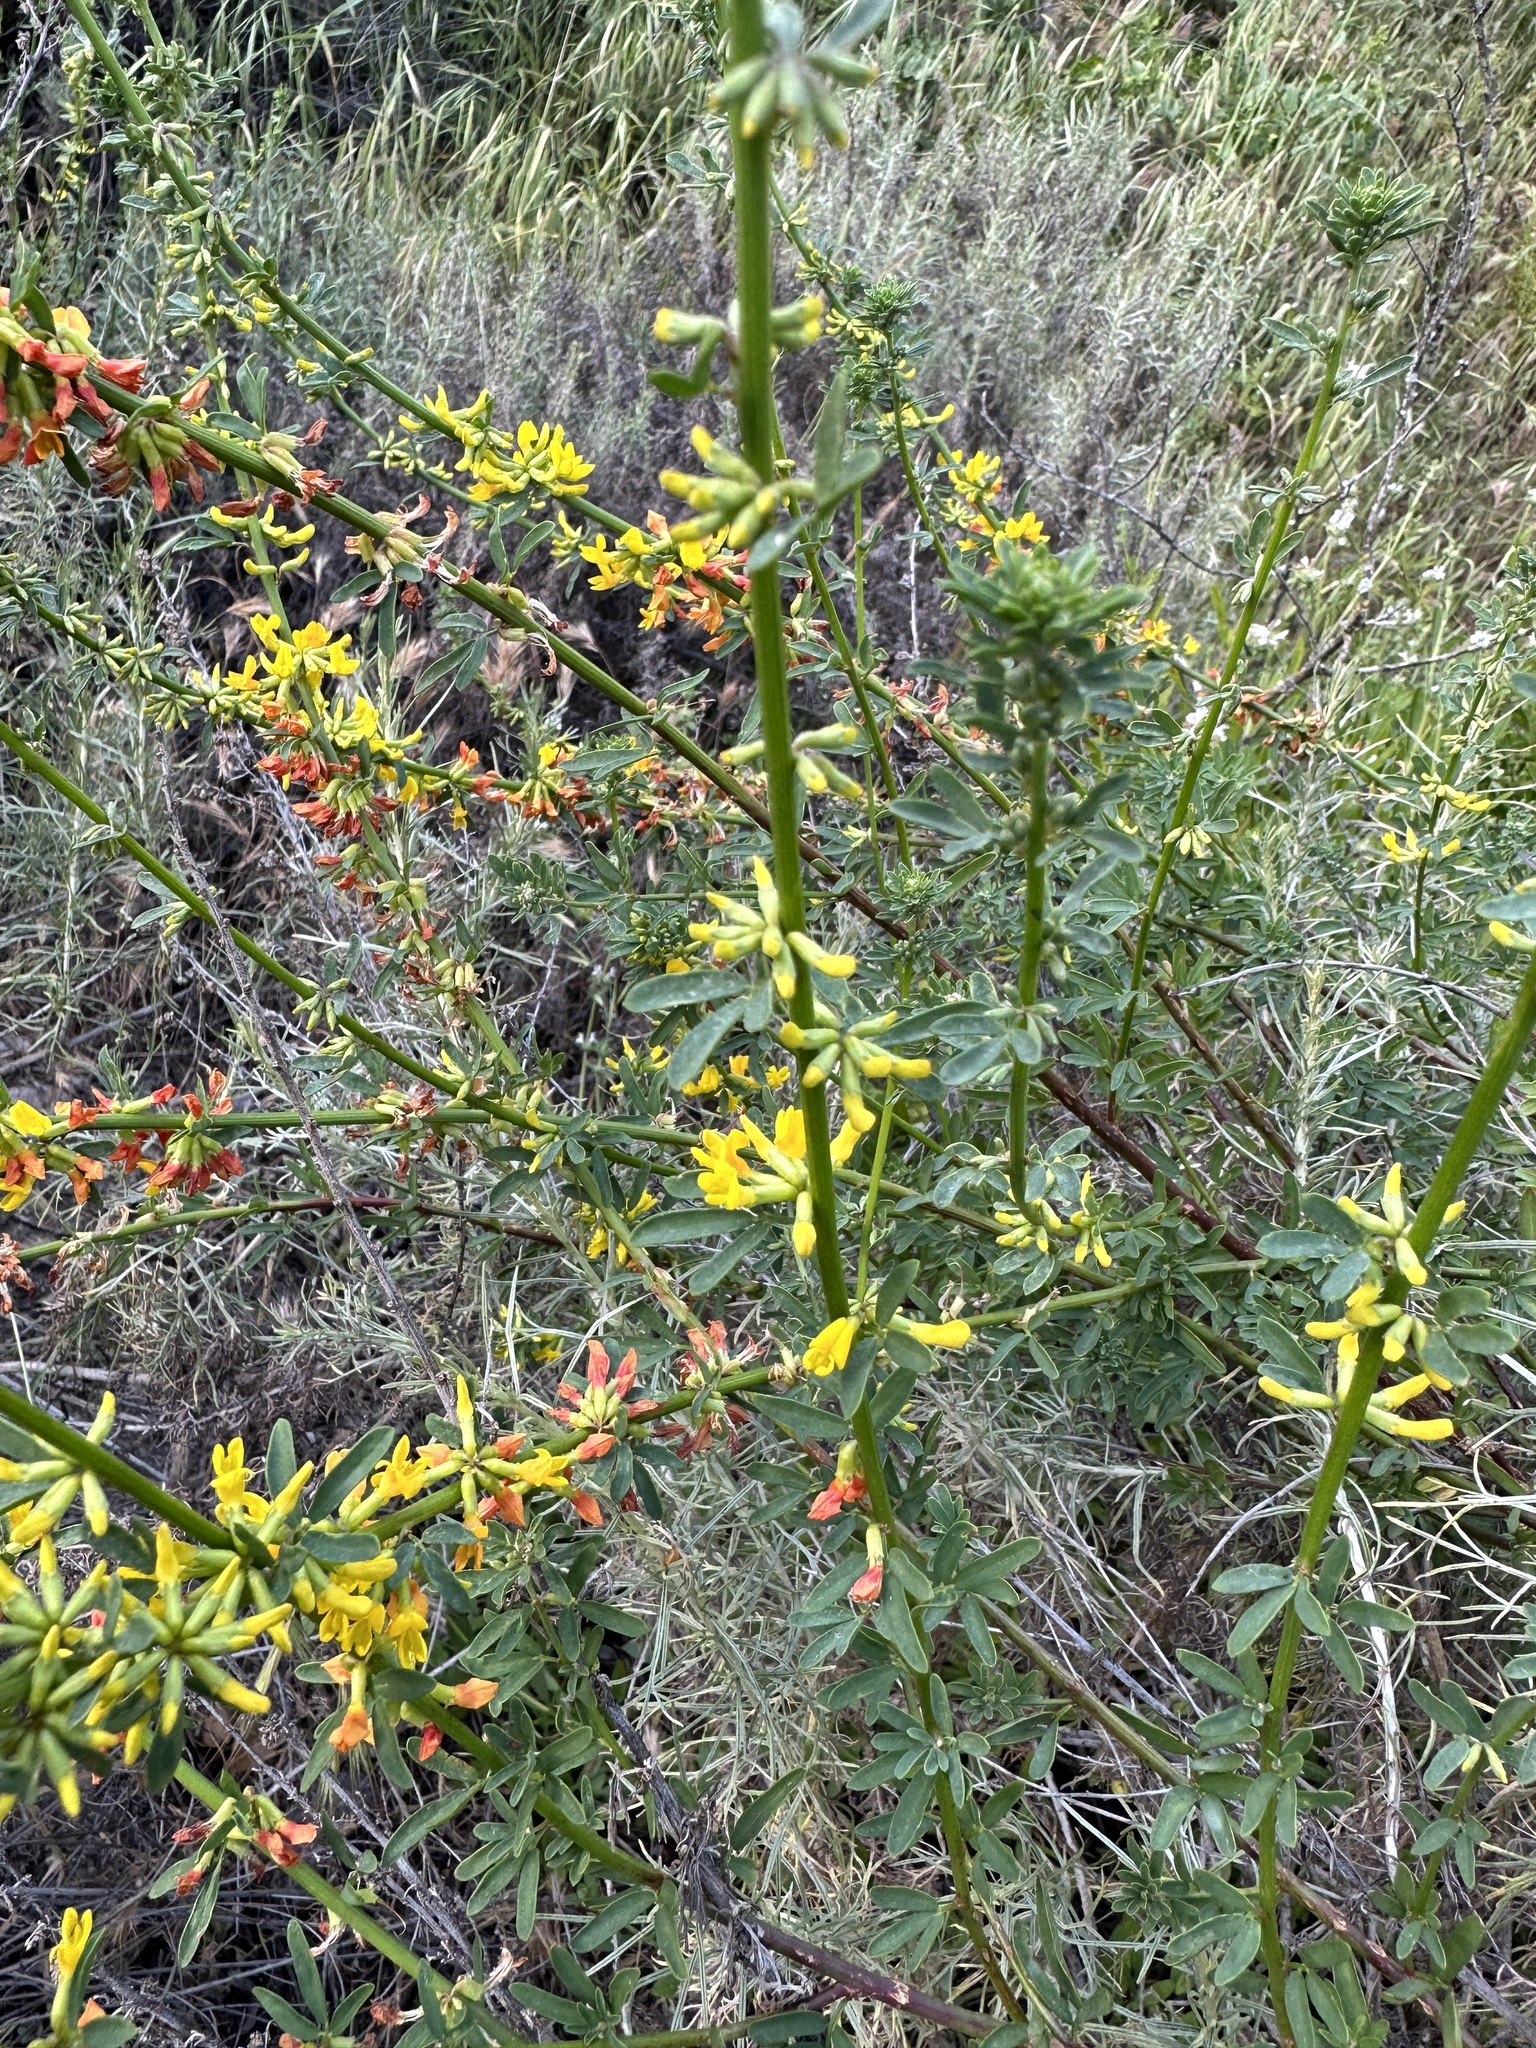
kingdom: Plantae
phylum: Tracheophyta
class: Magnoliopsida
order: Fabales
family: Fabaceae
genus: Acmispon
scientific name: Acmispon glaber
